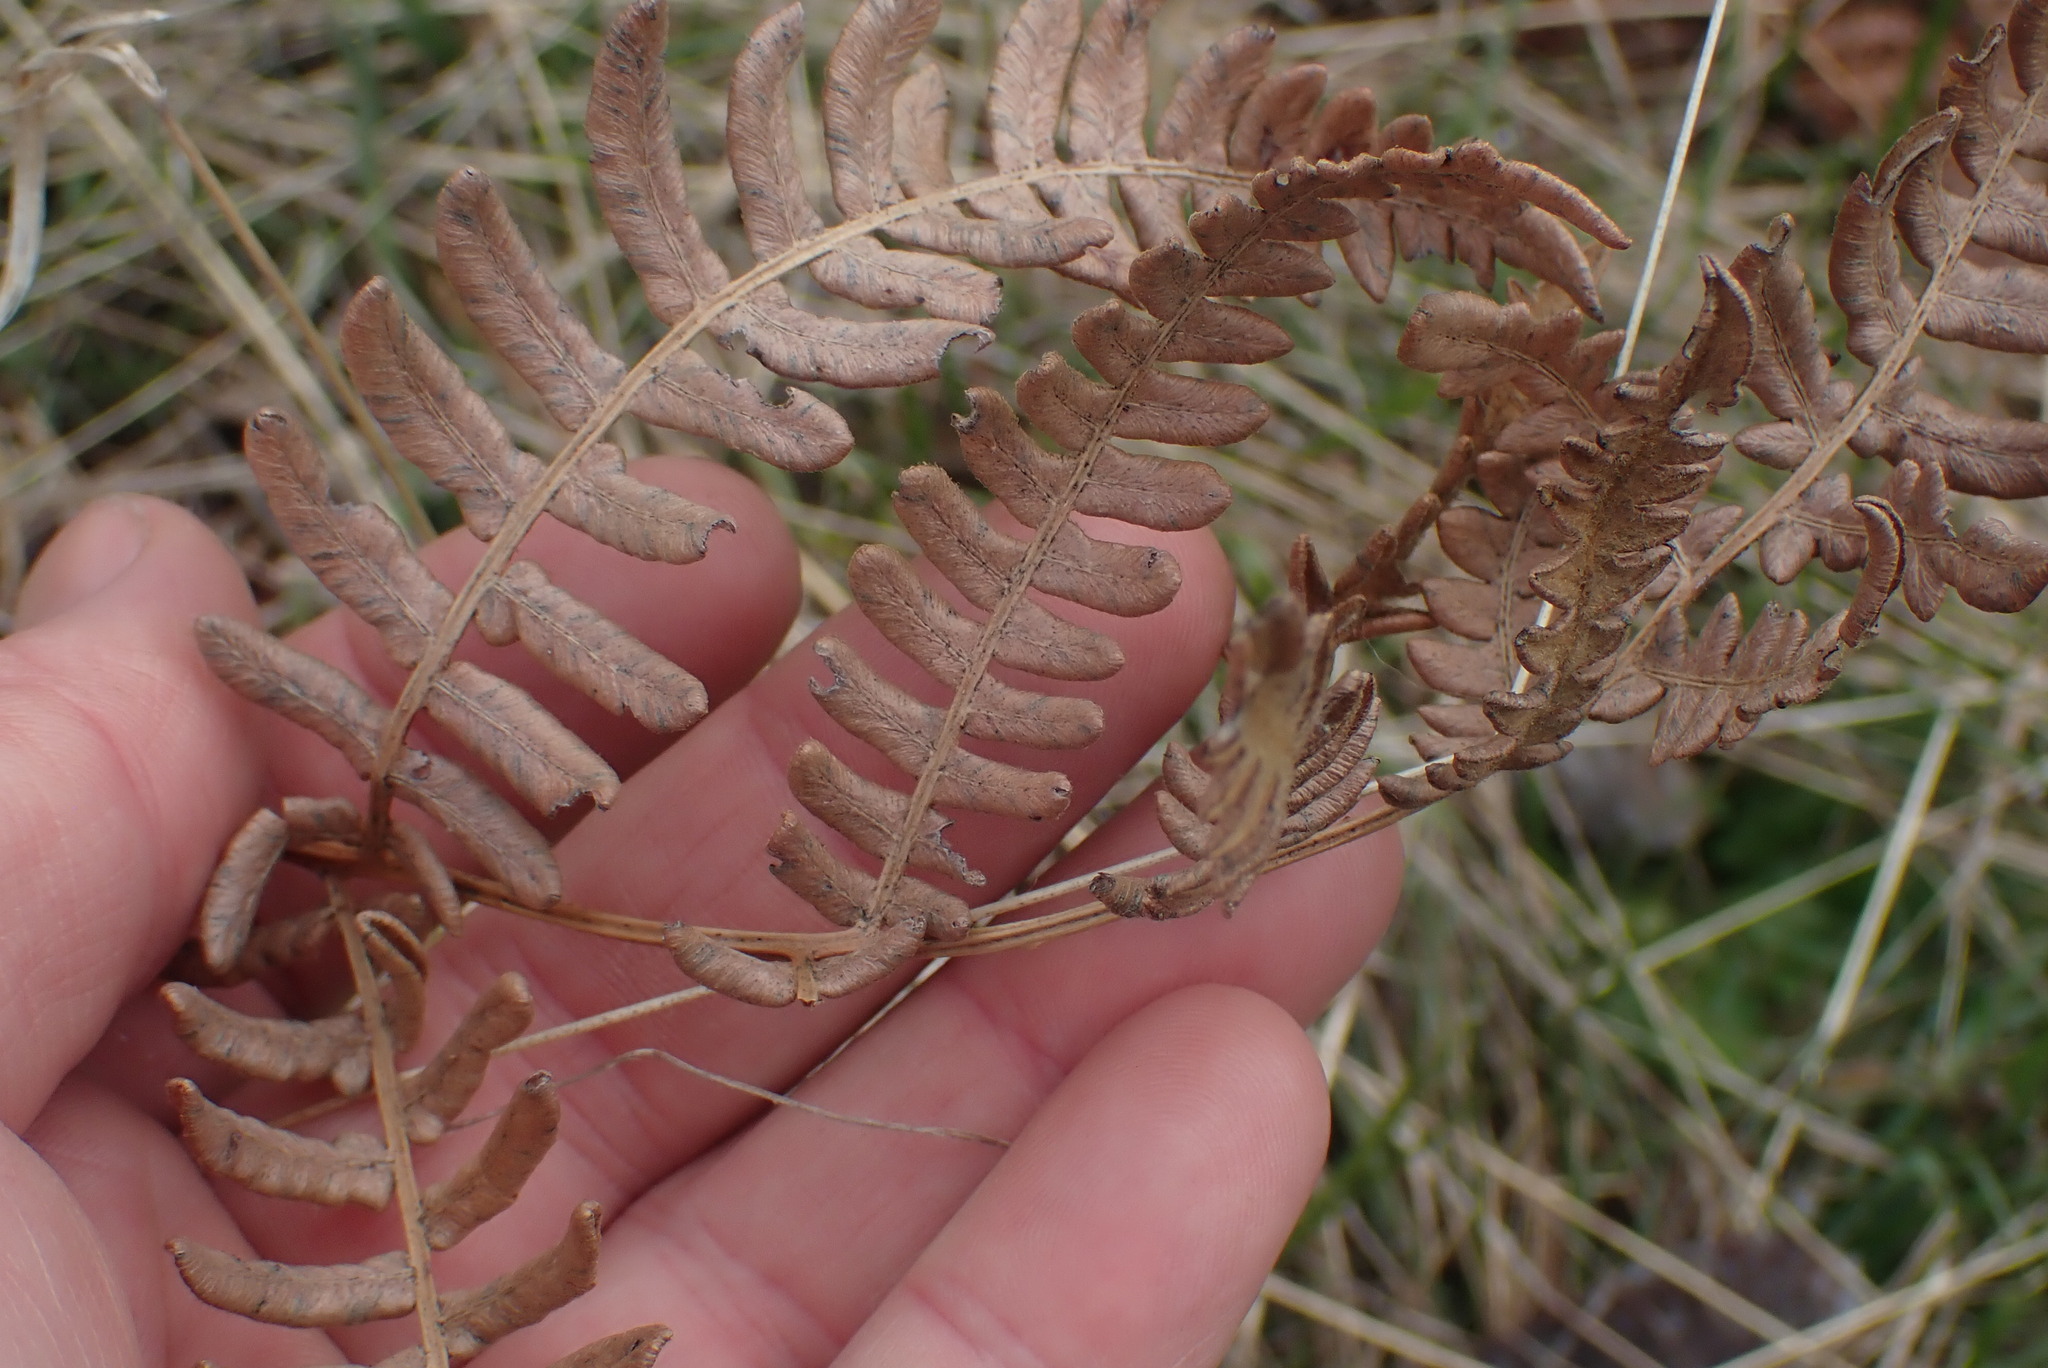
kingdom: Plantae
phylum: Tracheophyta
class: Polypodiopsida
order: Polypodiales
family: Dennstaedtiaceae
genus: Pteridium
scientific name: Pteridium aquilinum
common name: Bracken
